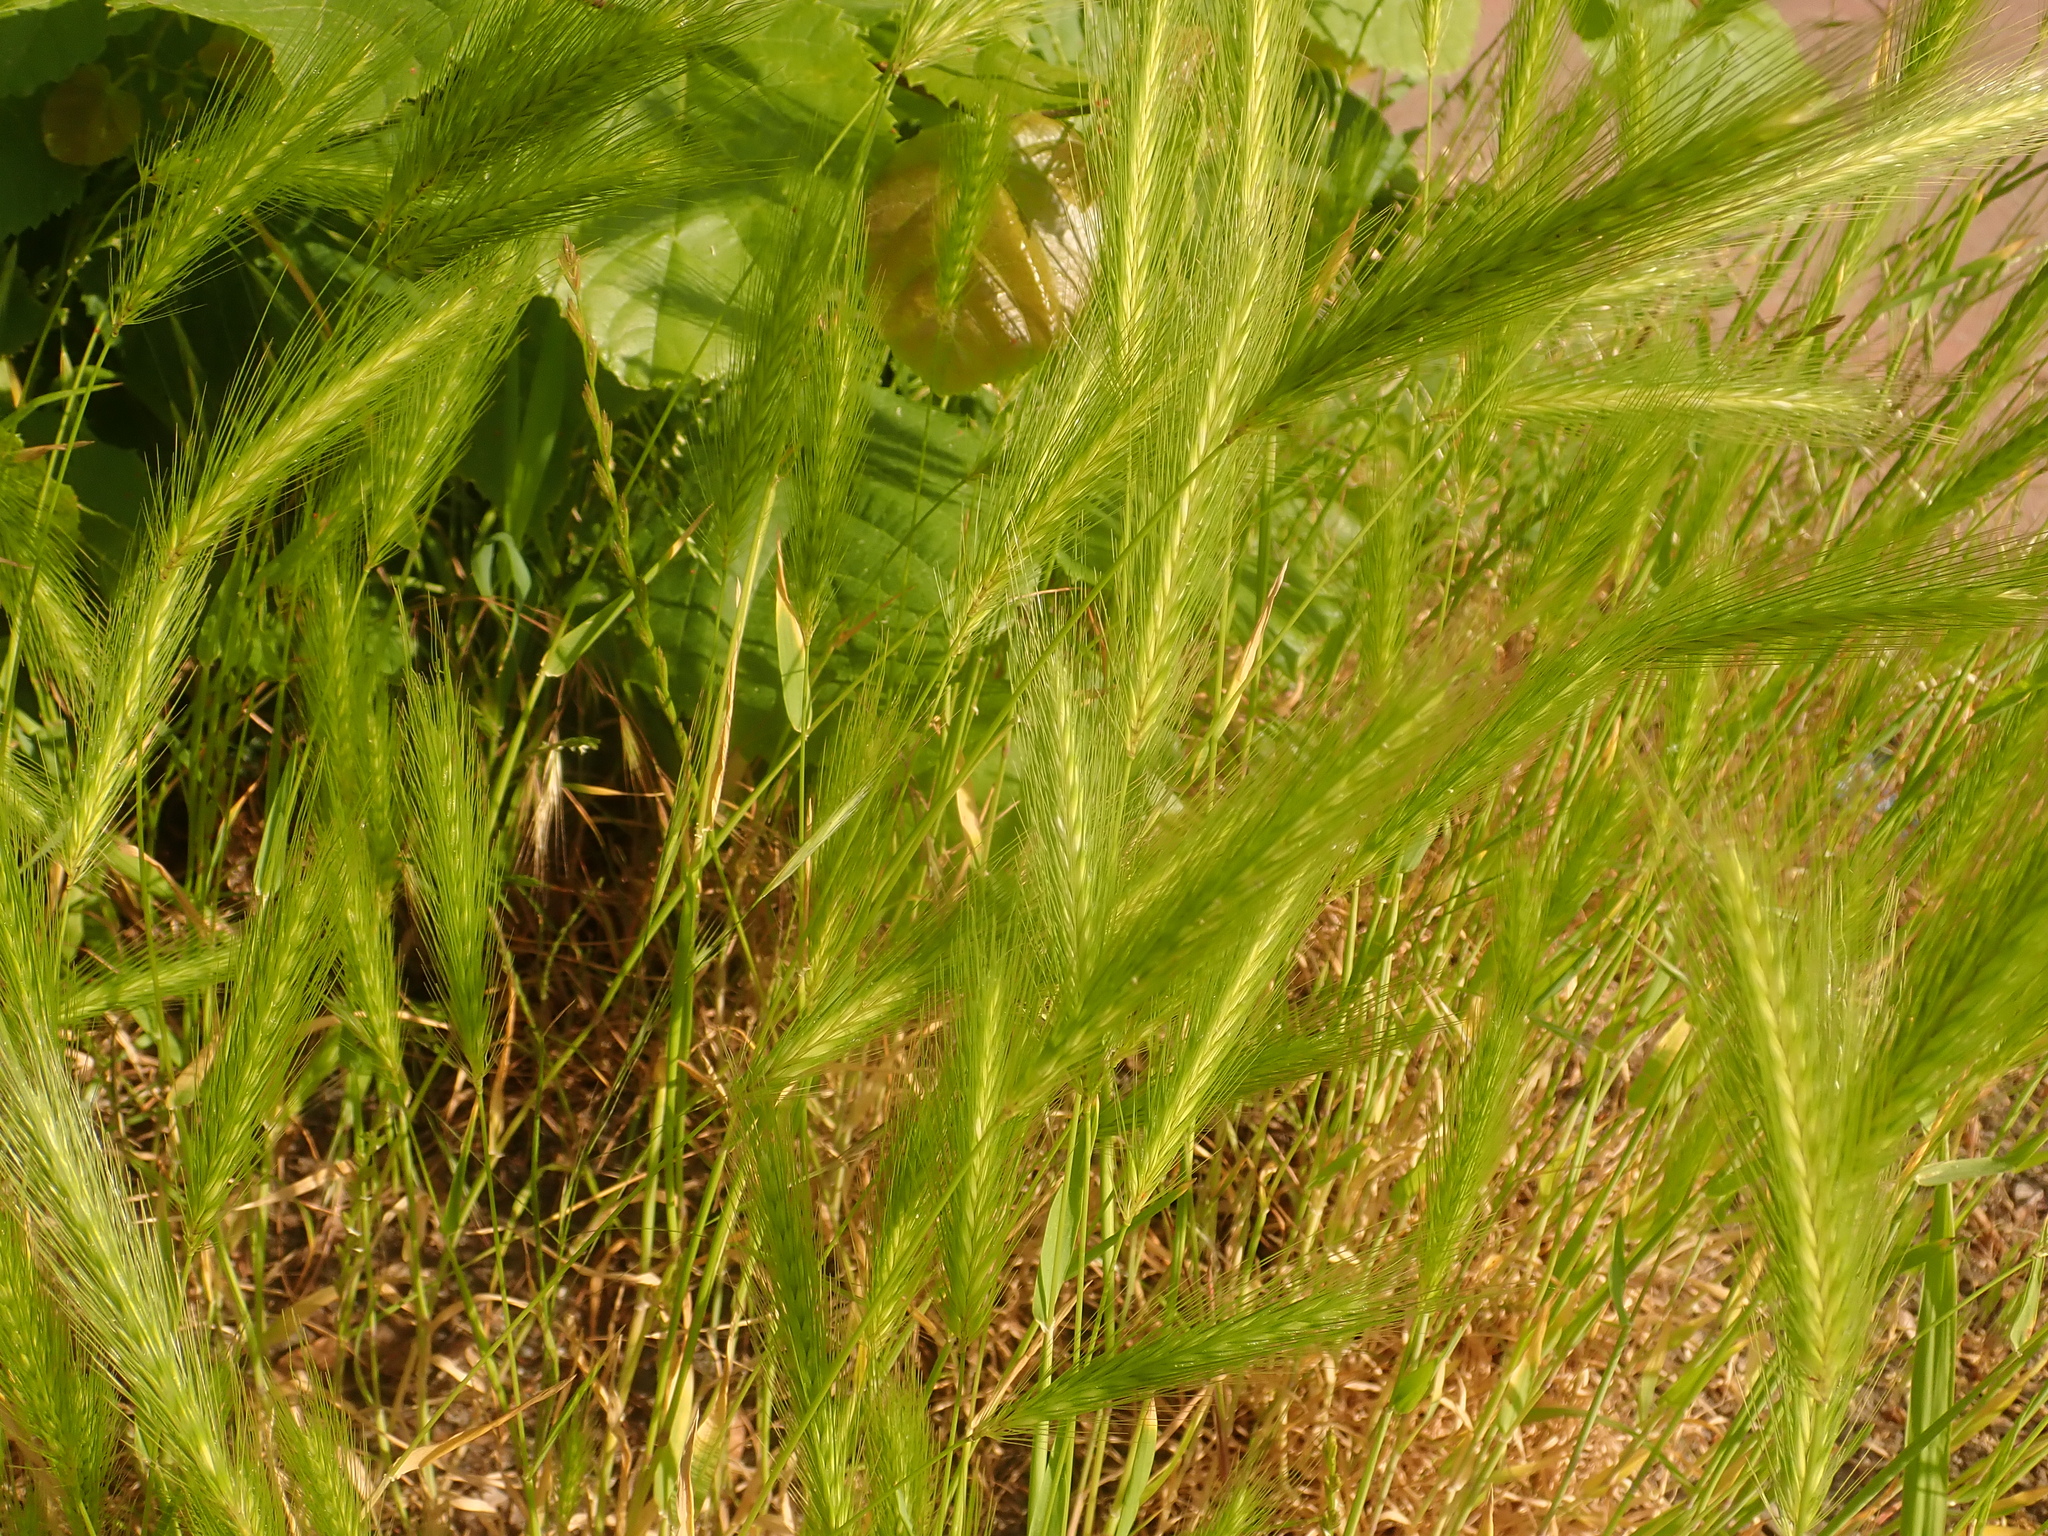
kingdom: Plantae
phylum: Tracheophyta
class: Liliopsida
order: Poales
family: Poaceae
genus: Hordeum
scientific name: Hordeum murinum
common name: Wall barley
